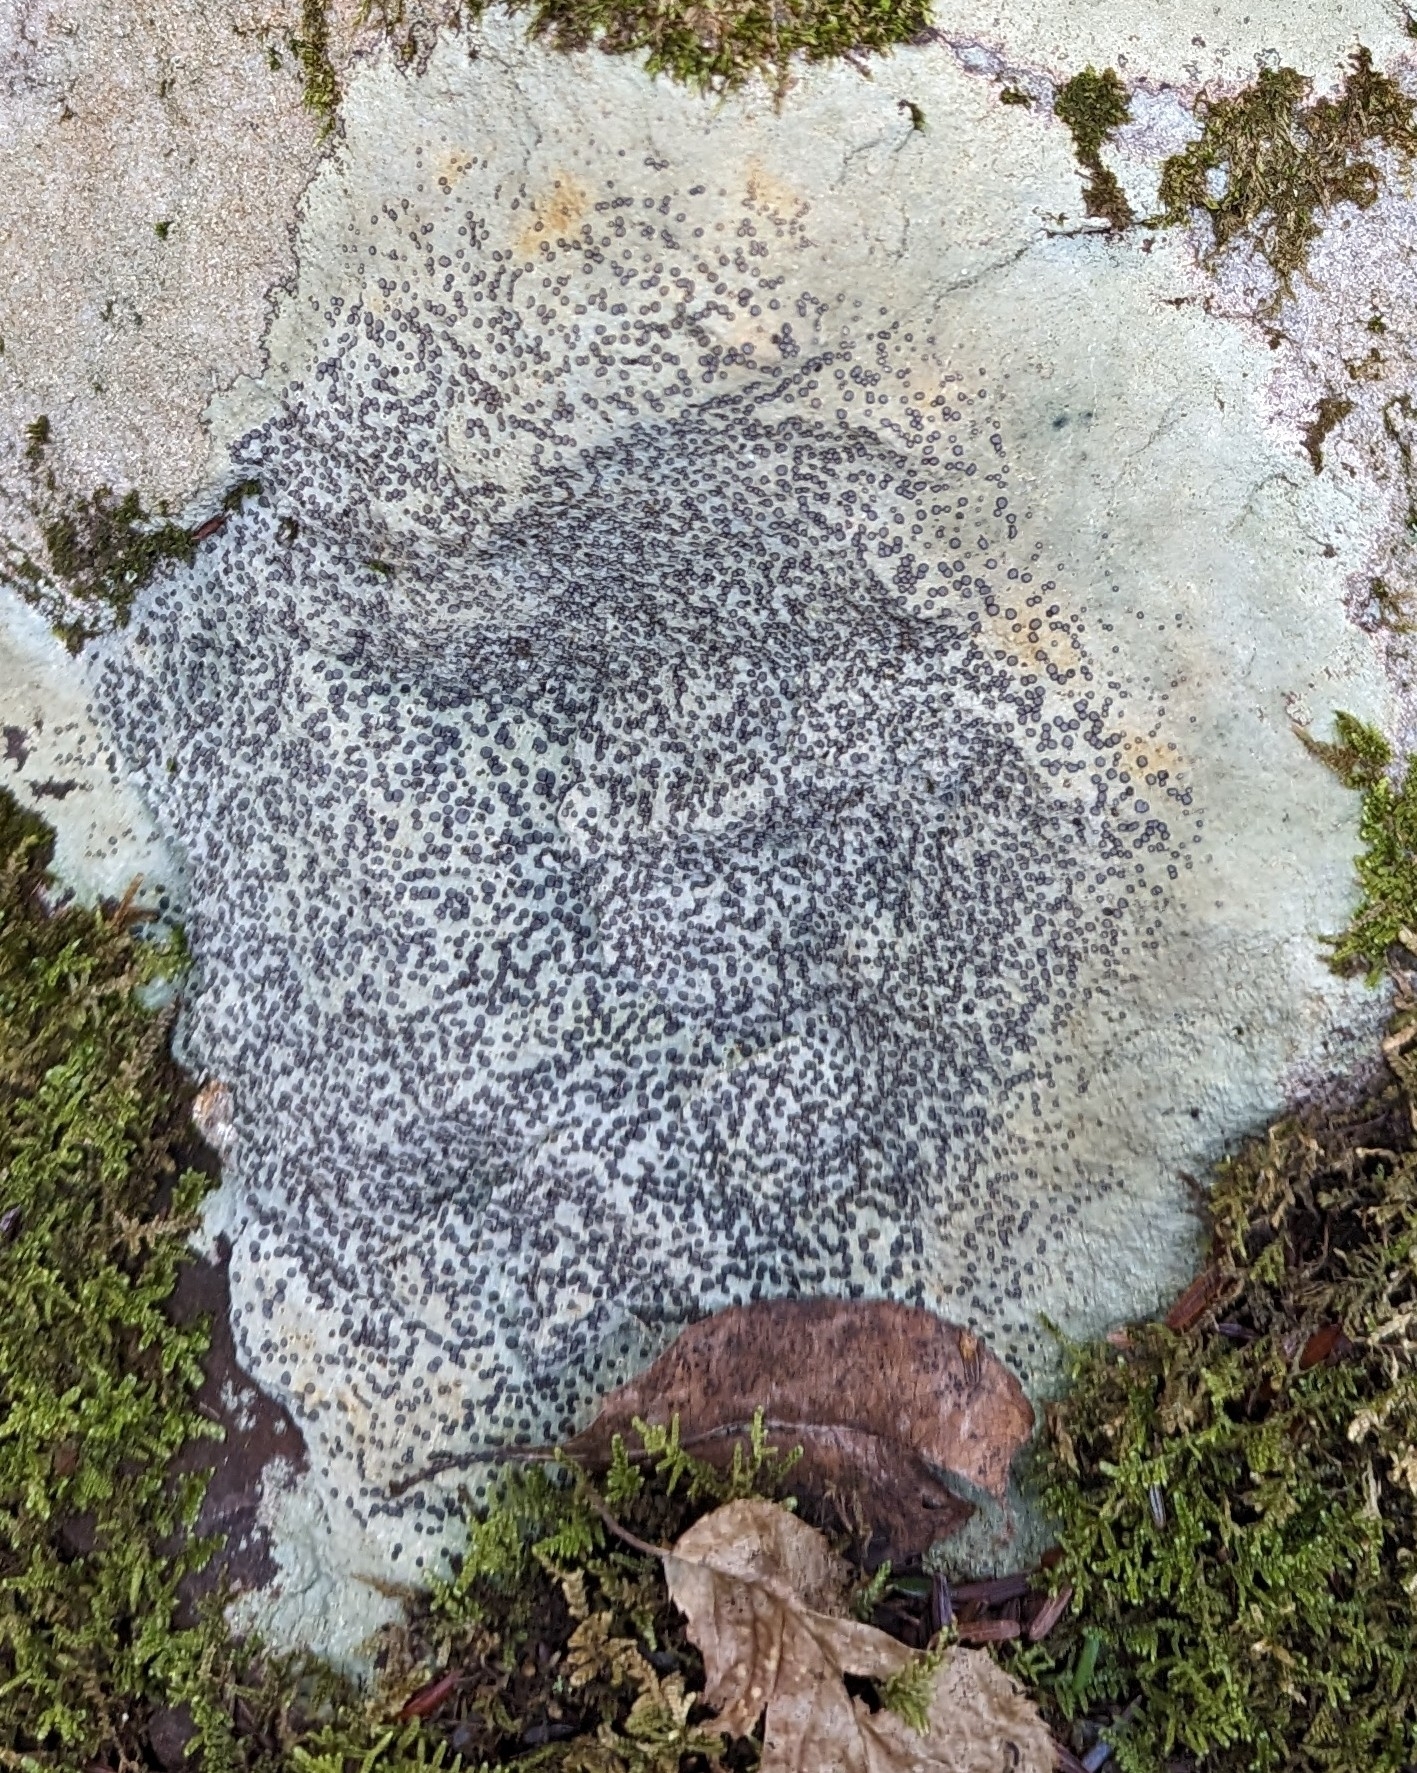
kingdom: Fungi
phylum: Ascomycota
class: Lecanoromycetes
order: Lecideales
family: Lecideaceae
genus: Porpidia
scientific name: Porpidia albocaerulescens
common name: Smokey-eyed boulder lichen
